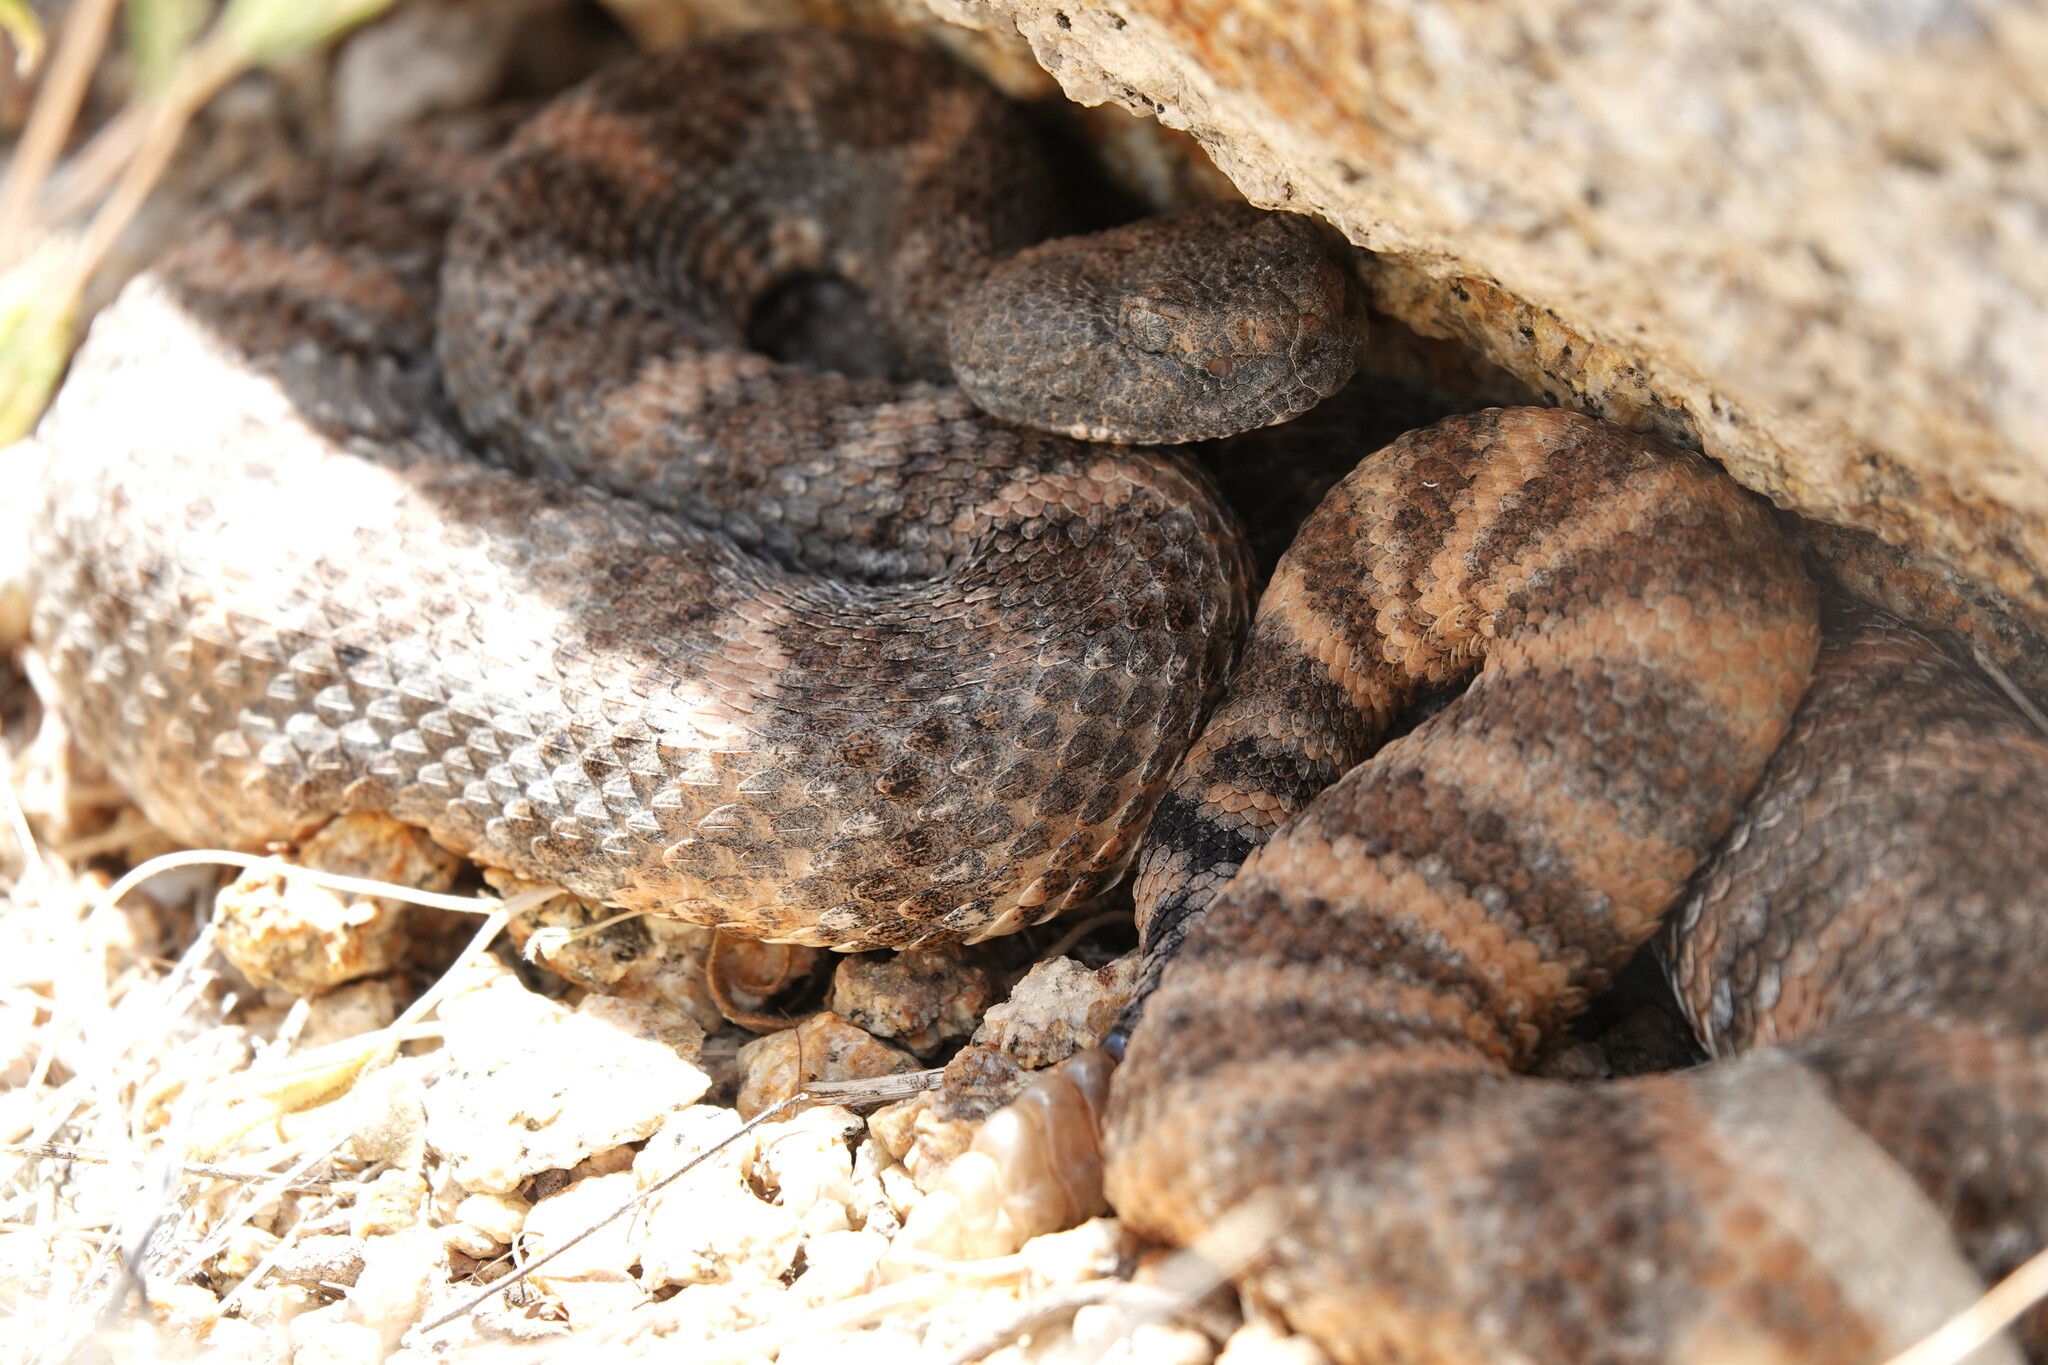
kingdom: Animalia
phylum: Chordata
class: Squamata
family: Viperidae
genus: Crotalus
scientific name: Crotalus pyrrhus
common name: Southwestern speckled rattlesnake
